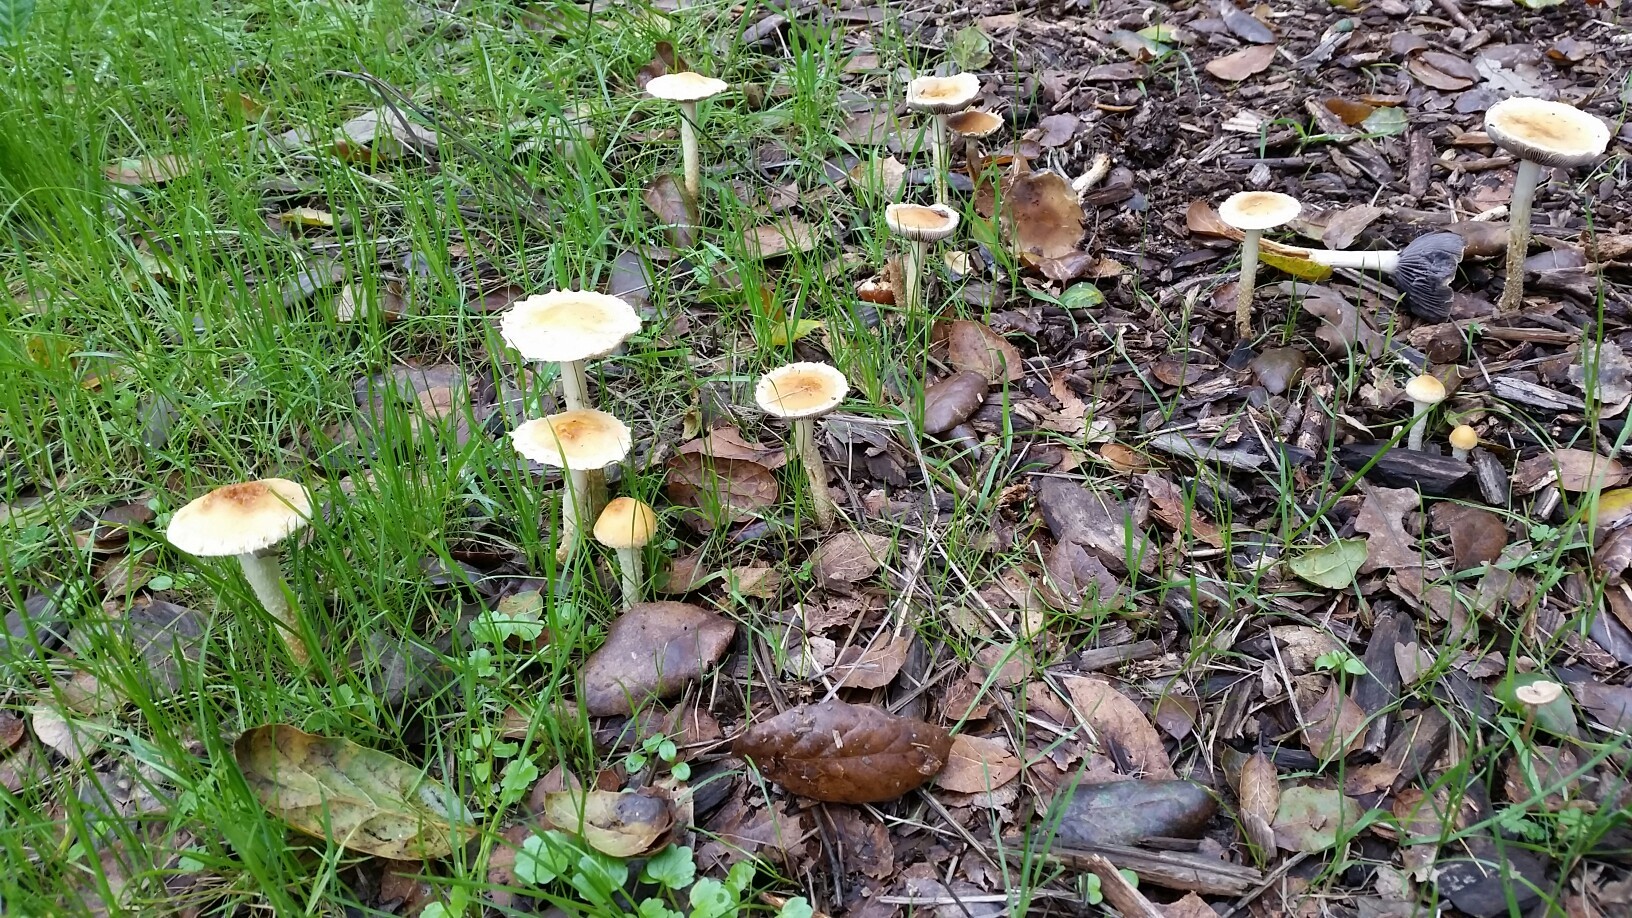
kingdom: Fungi
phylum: Basidiomycota
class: Agaricomycetes
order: Agaricales
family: Strophariaceae
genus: Leratiomyces
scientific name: Leratiomyces percevalii
